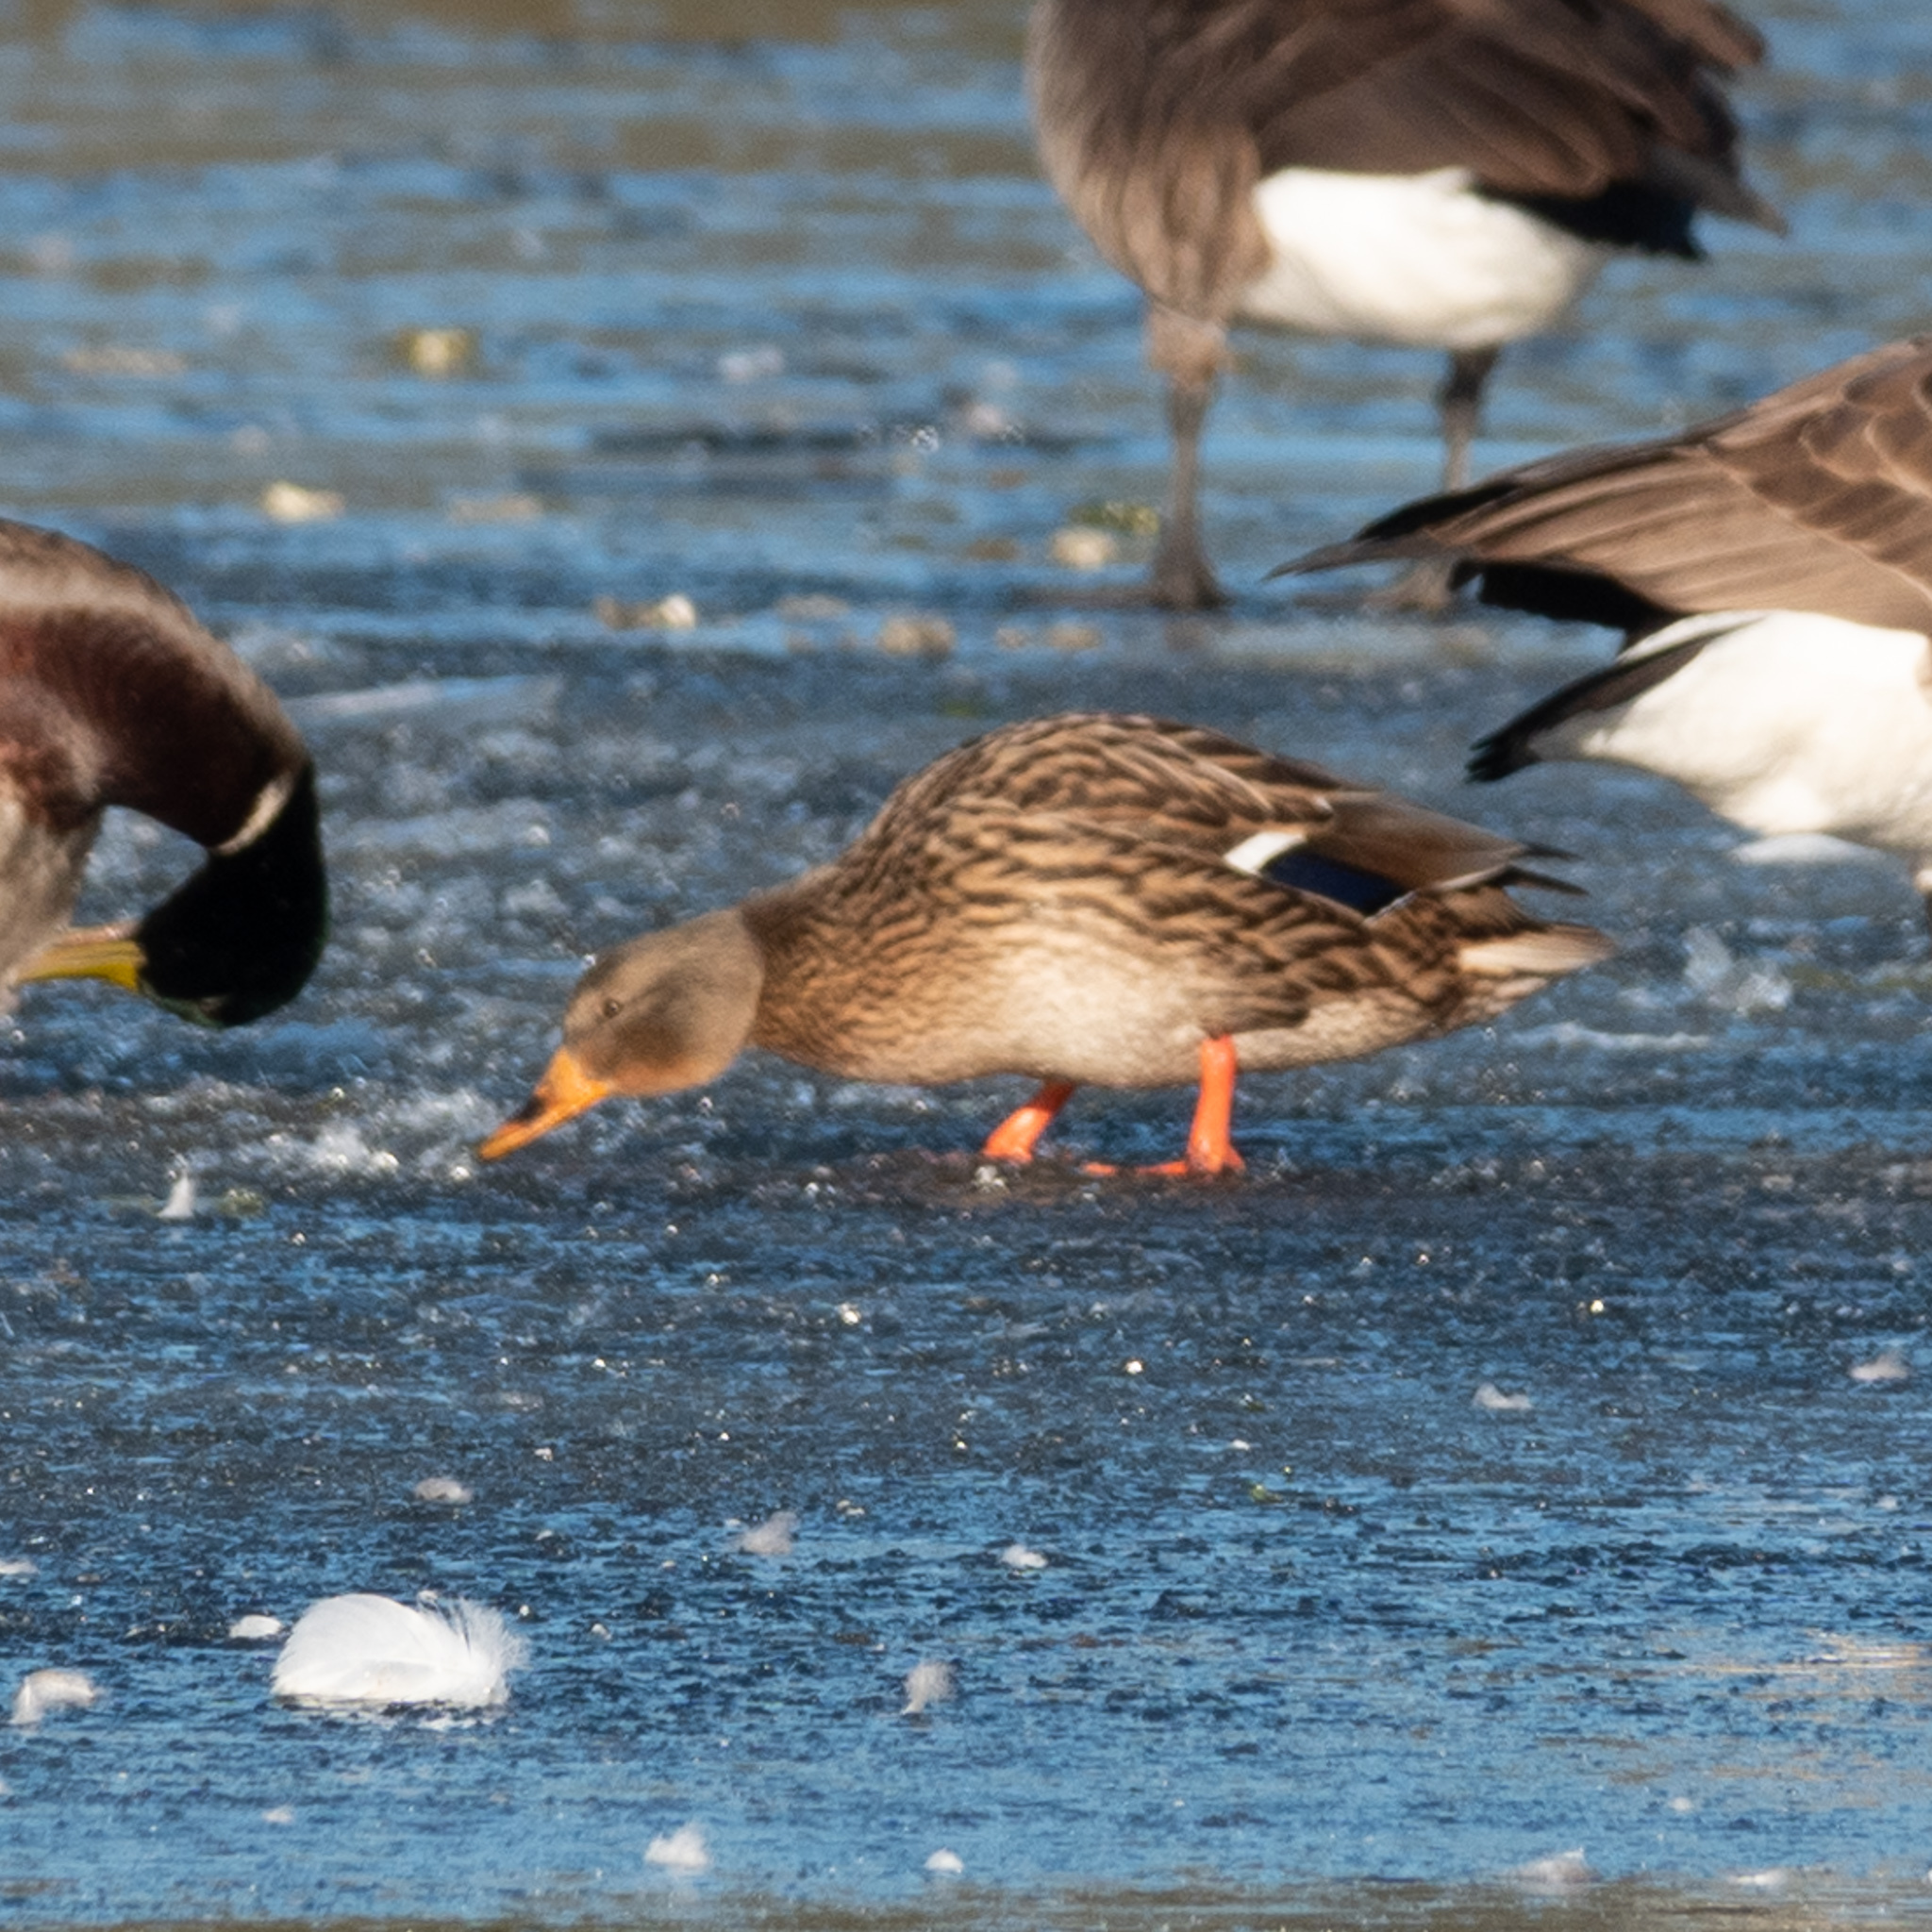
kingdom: Animalia
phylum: Chordata
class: Aves
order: Anseriformes
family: Anatidae
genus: Anas
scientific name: Anas platyrhynchos
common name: Mallard
